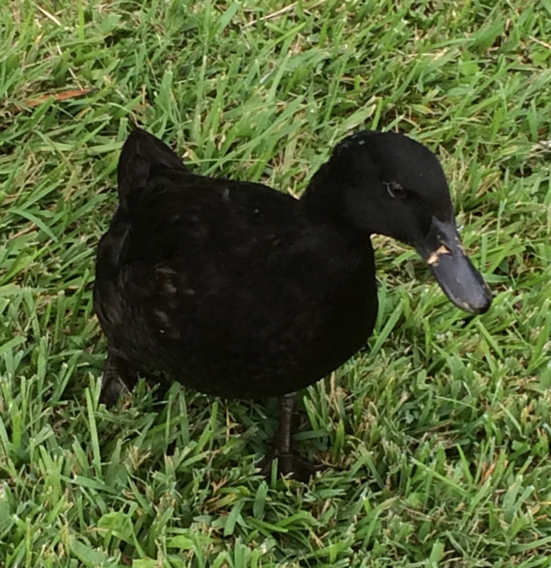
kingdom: Animalia
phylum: Chordata
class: Aves
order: Anseriformes
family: Anatidae
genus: Anas
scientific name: Anas platyrhynchos
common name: Mallard
